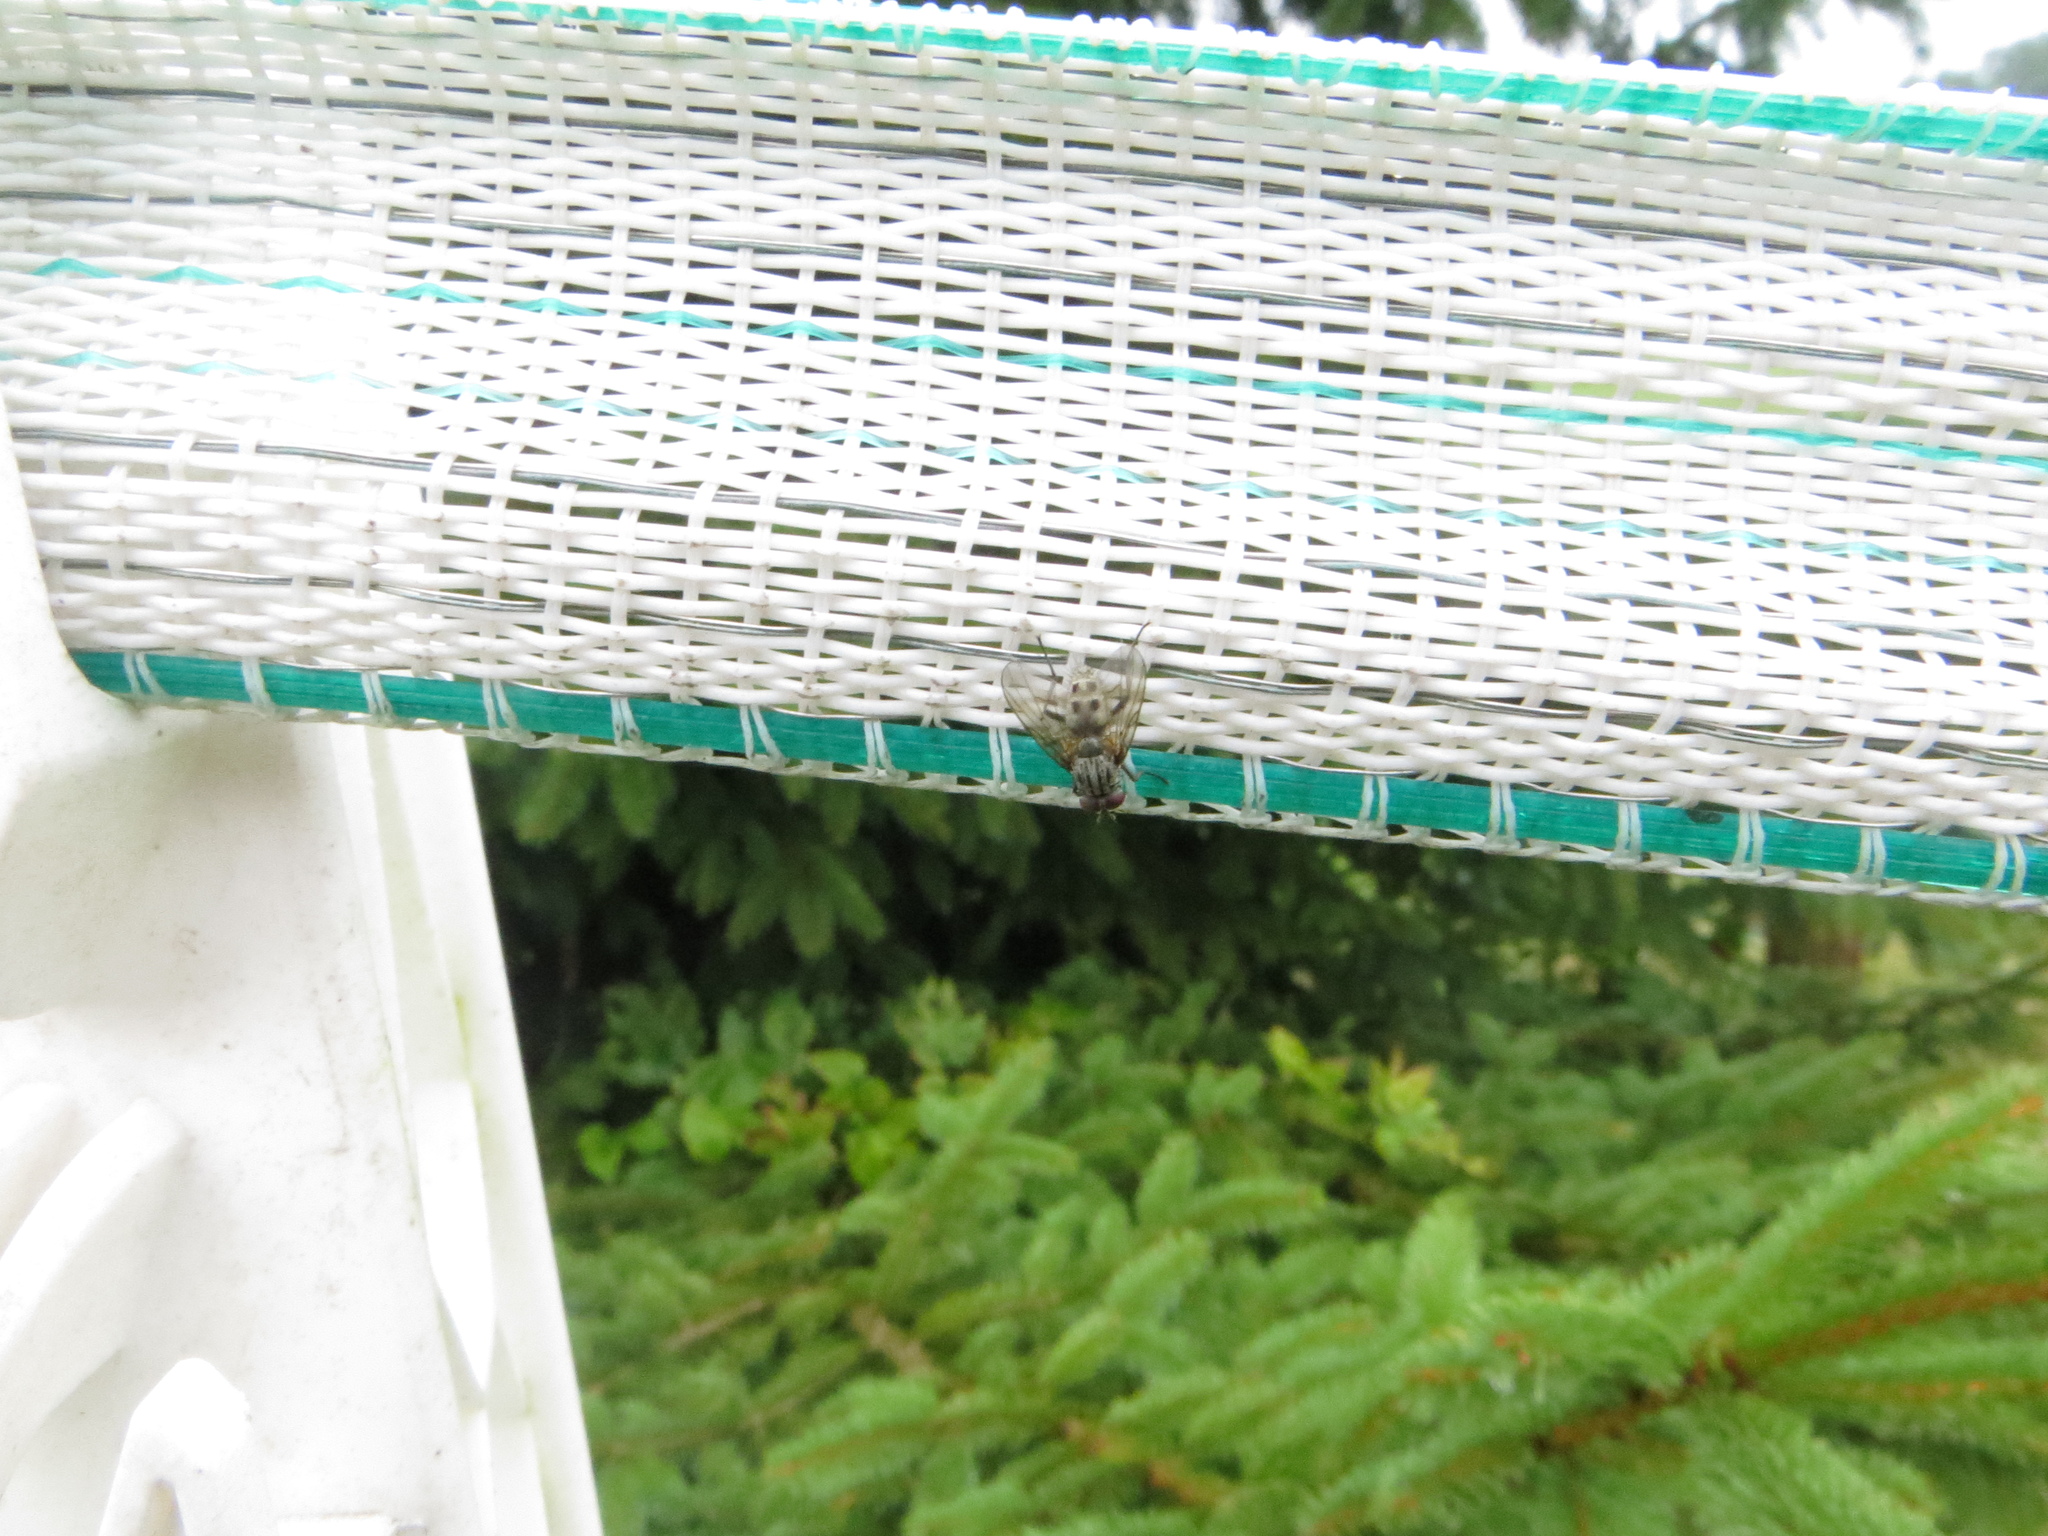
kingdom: Animalia
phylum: Arthropoda
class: Insecta
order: Diptera
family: Muscidae
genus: Helina
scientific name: Helina reversio
